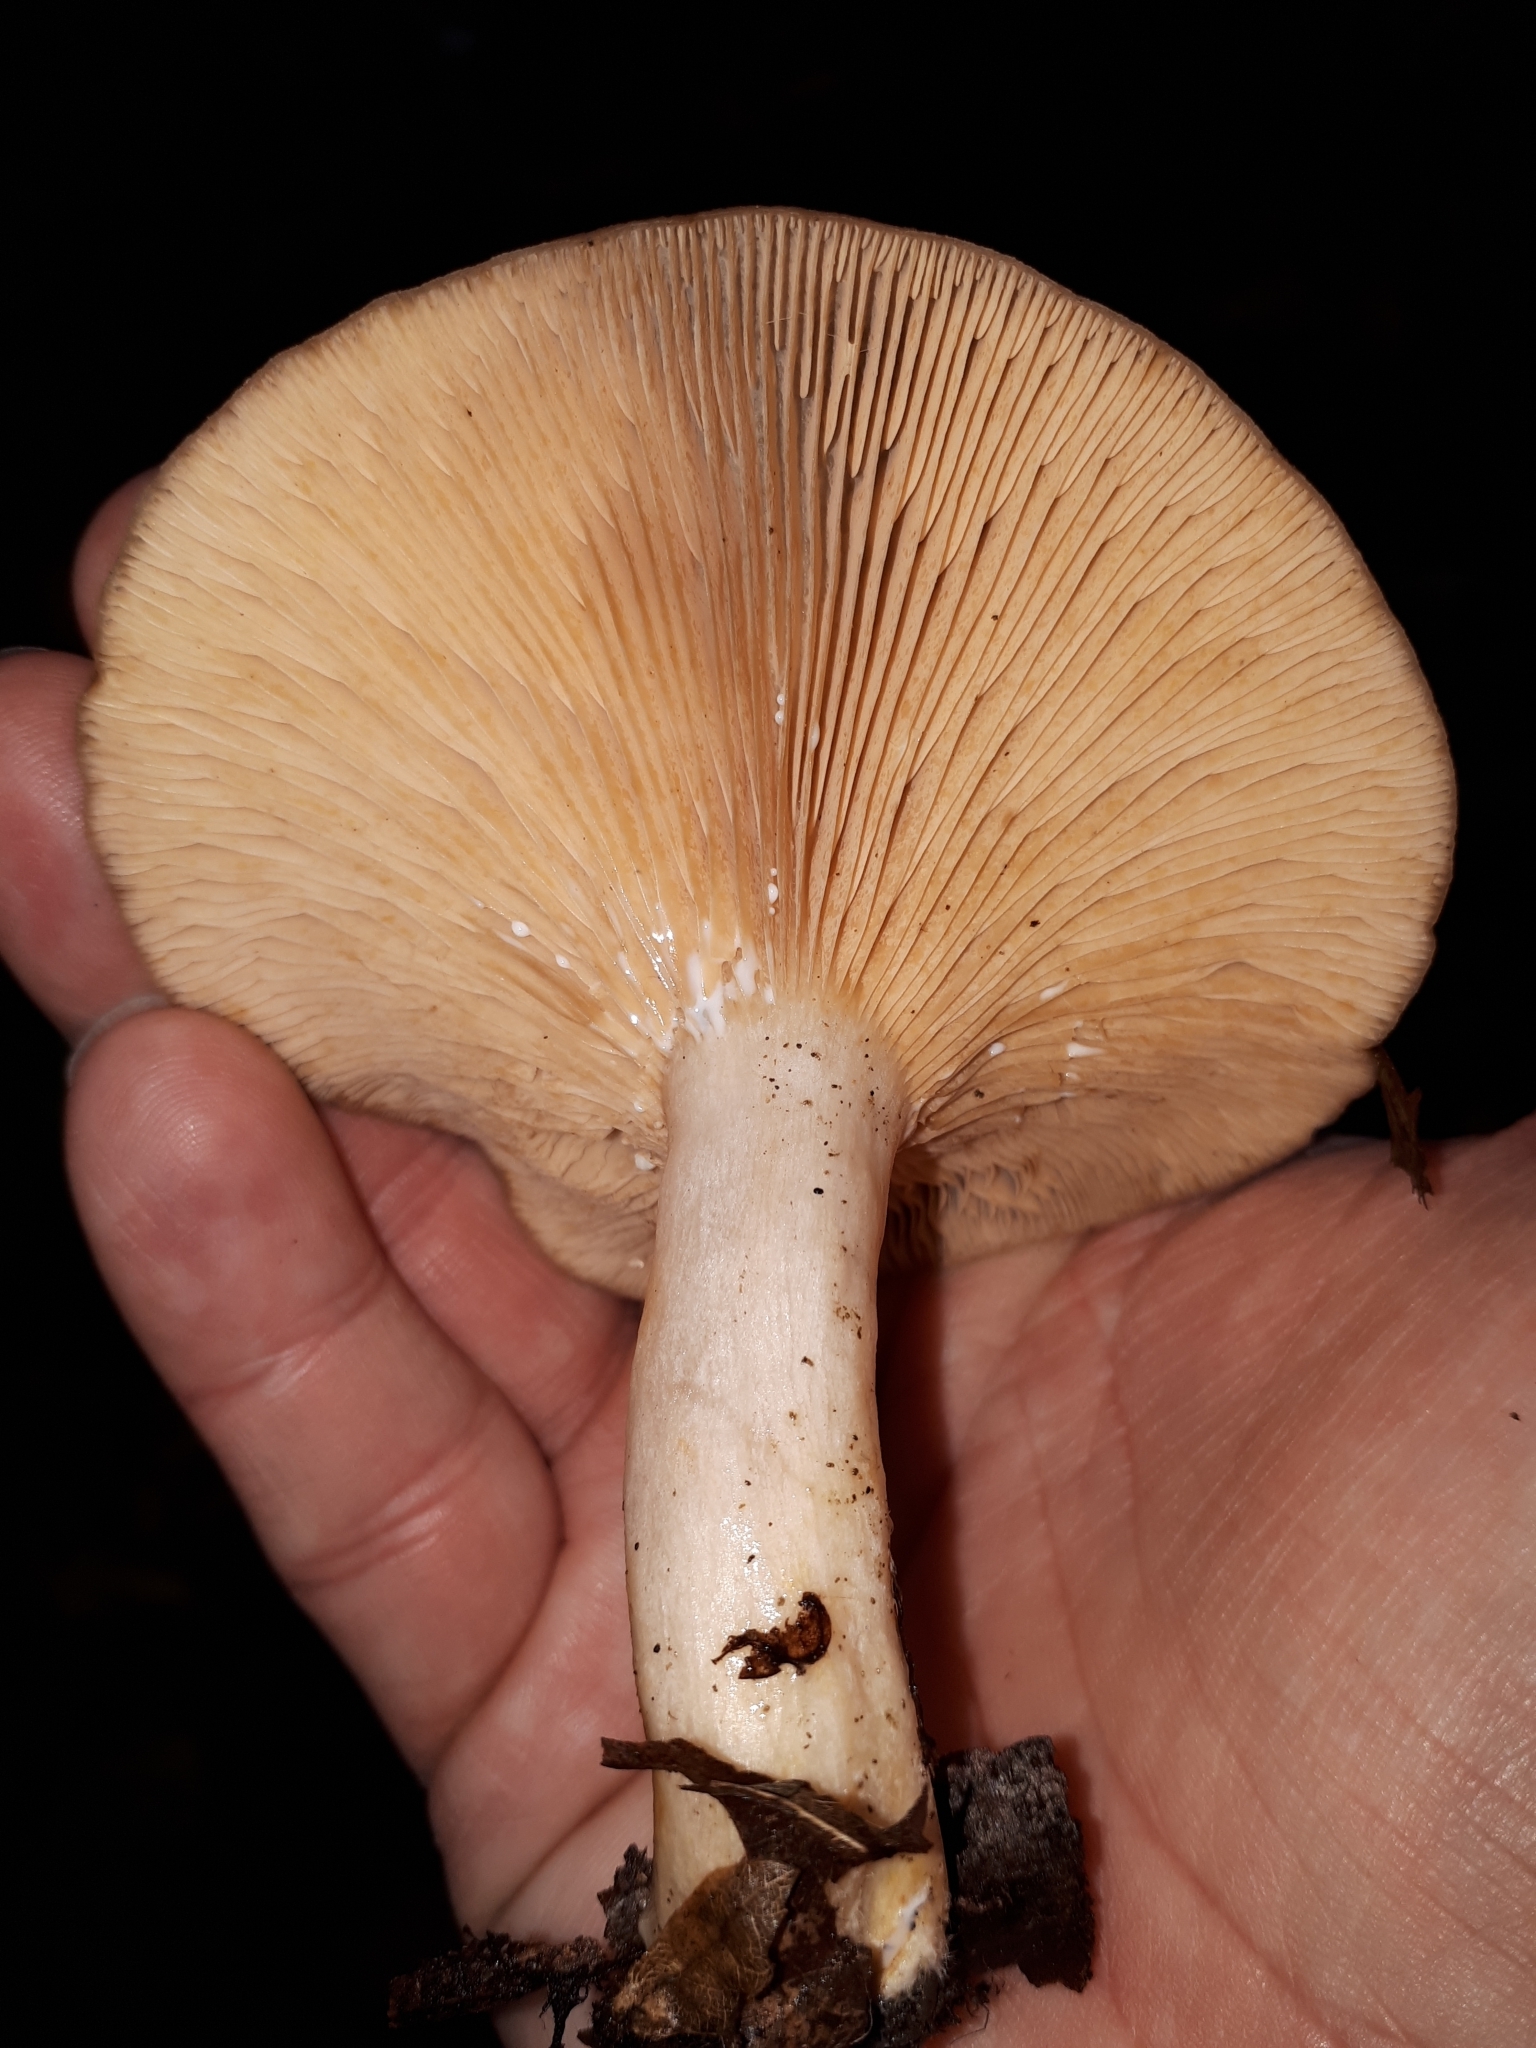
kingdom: Fungi
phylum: Basidiomycota
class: Agaricomycetes
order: Russulales
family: Russulaceae
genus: Lactarius
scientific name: Lactarius circellatus
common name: Circled milkcap
